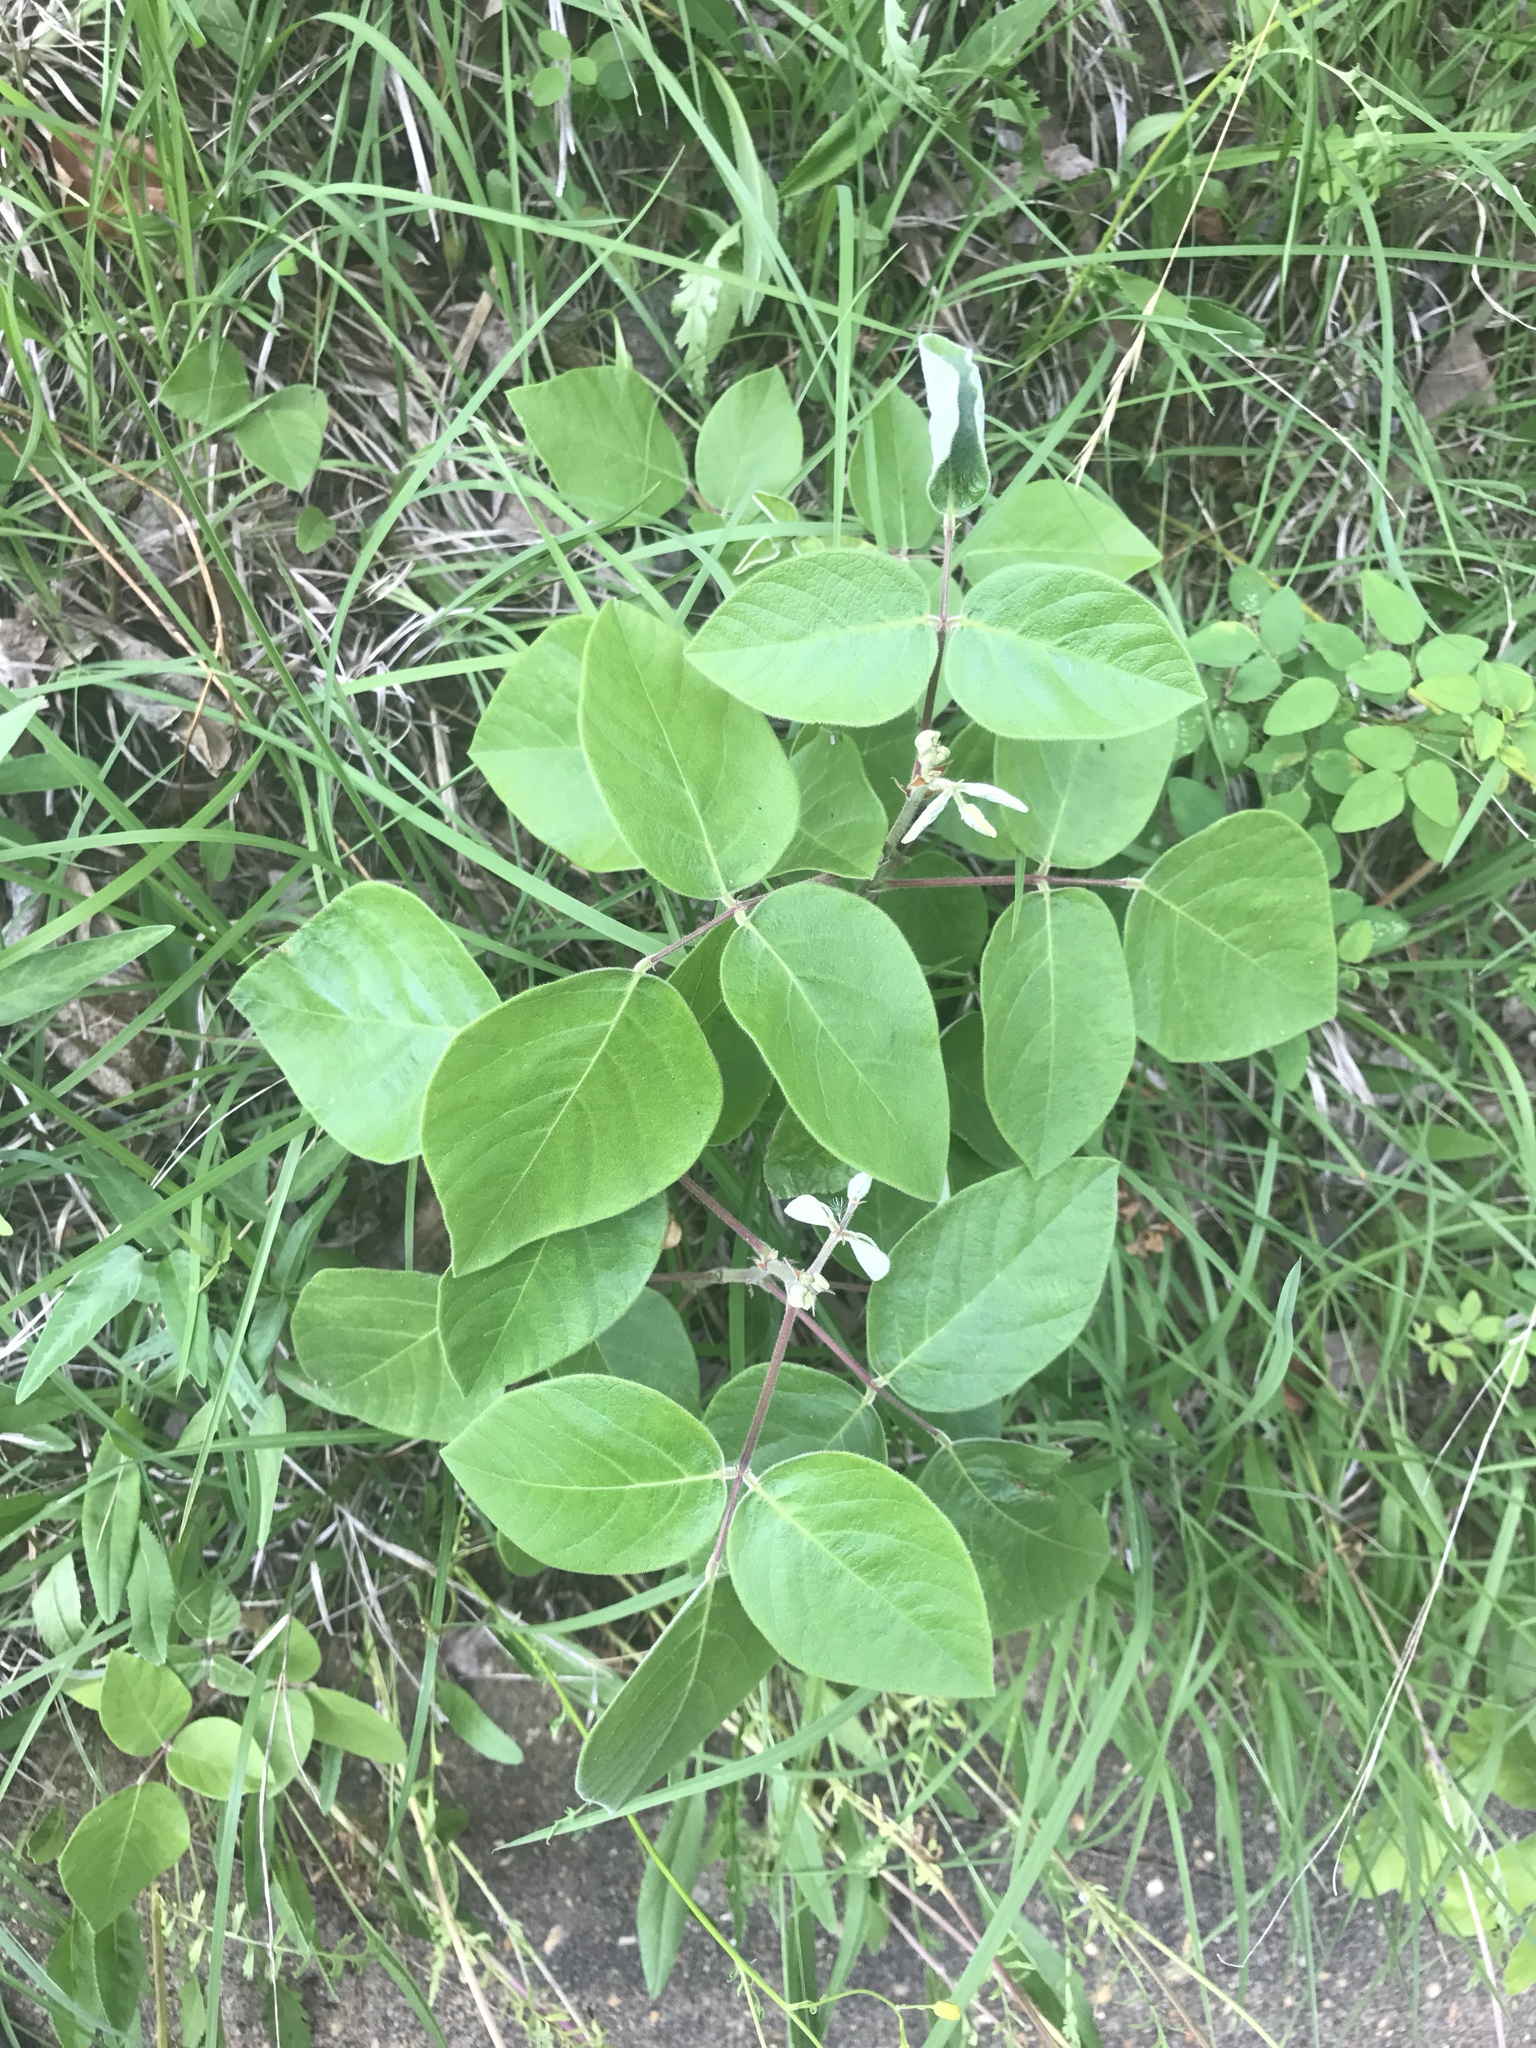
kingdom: Plantae
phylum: Tracheophyta
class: Magnoliopsida
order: Fabales
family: Fabaceae
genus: Desmodium
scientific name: Desmodium viridiflorum
